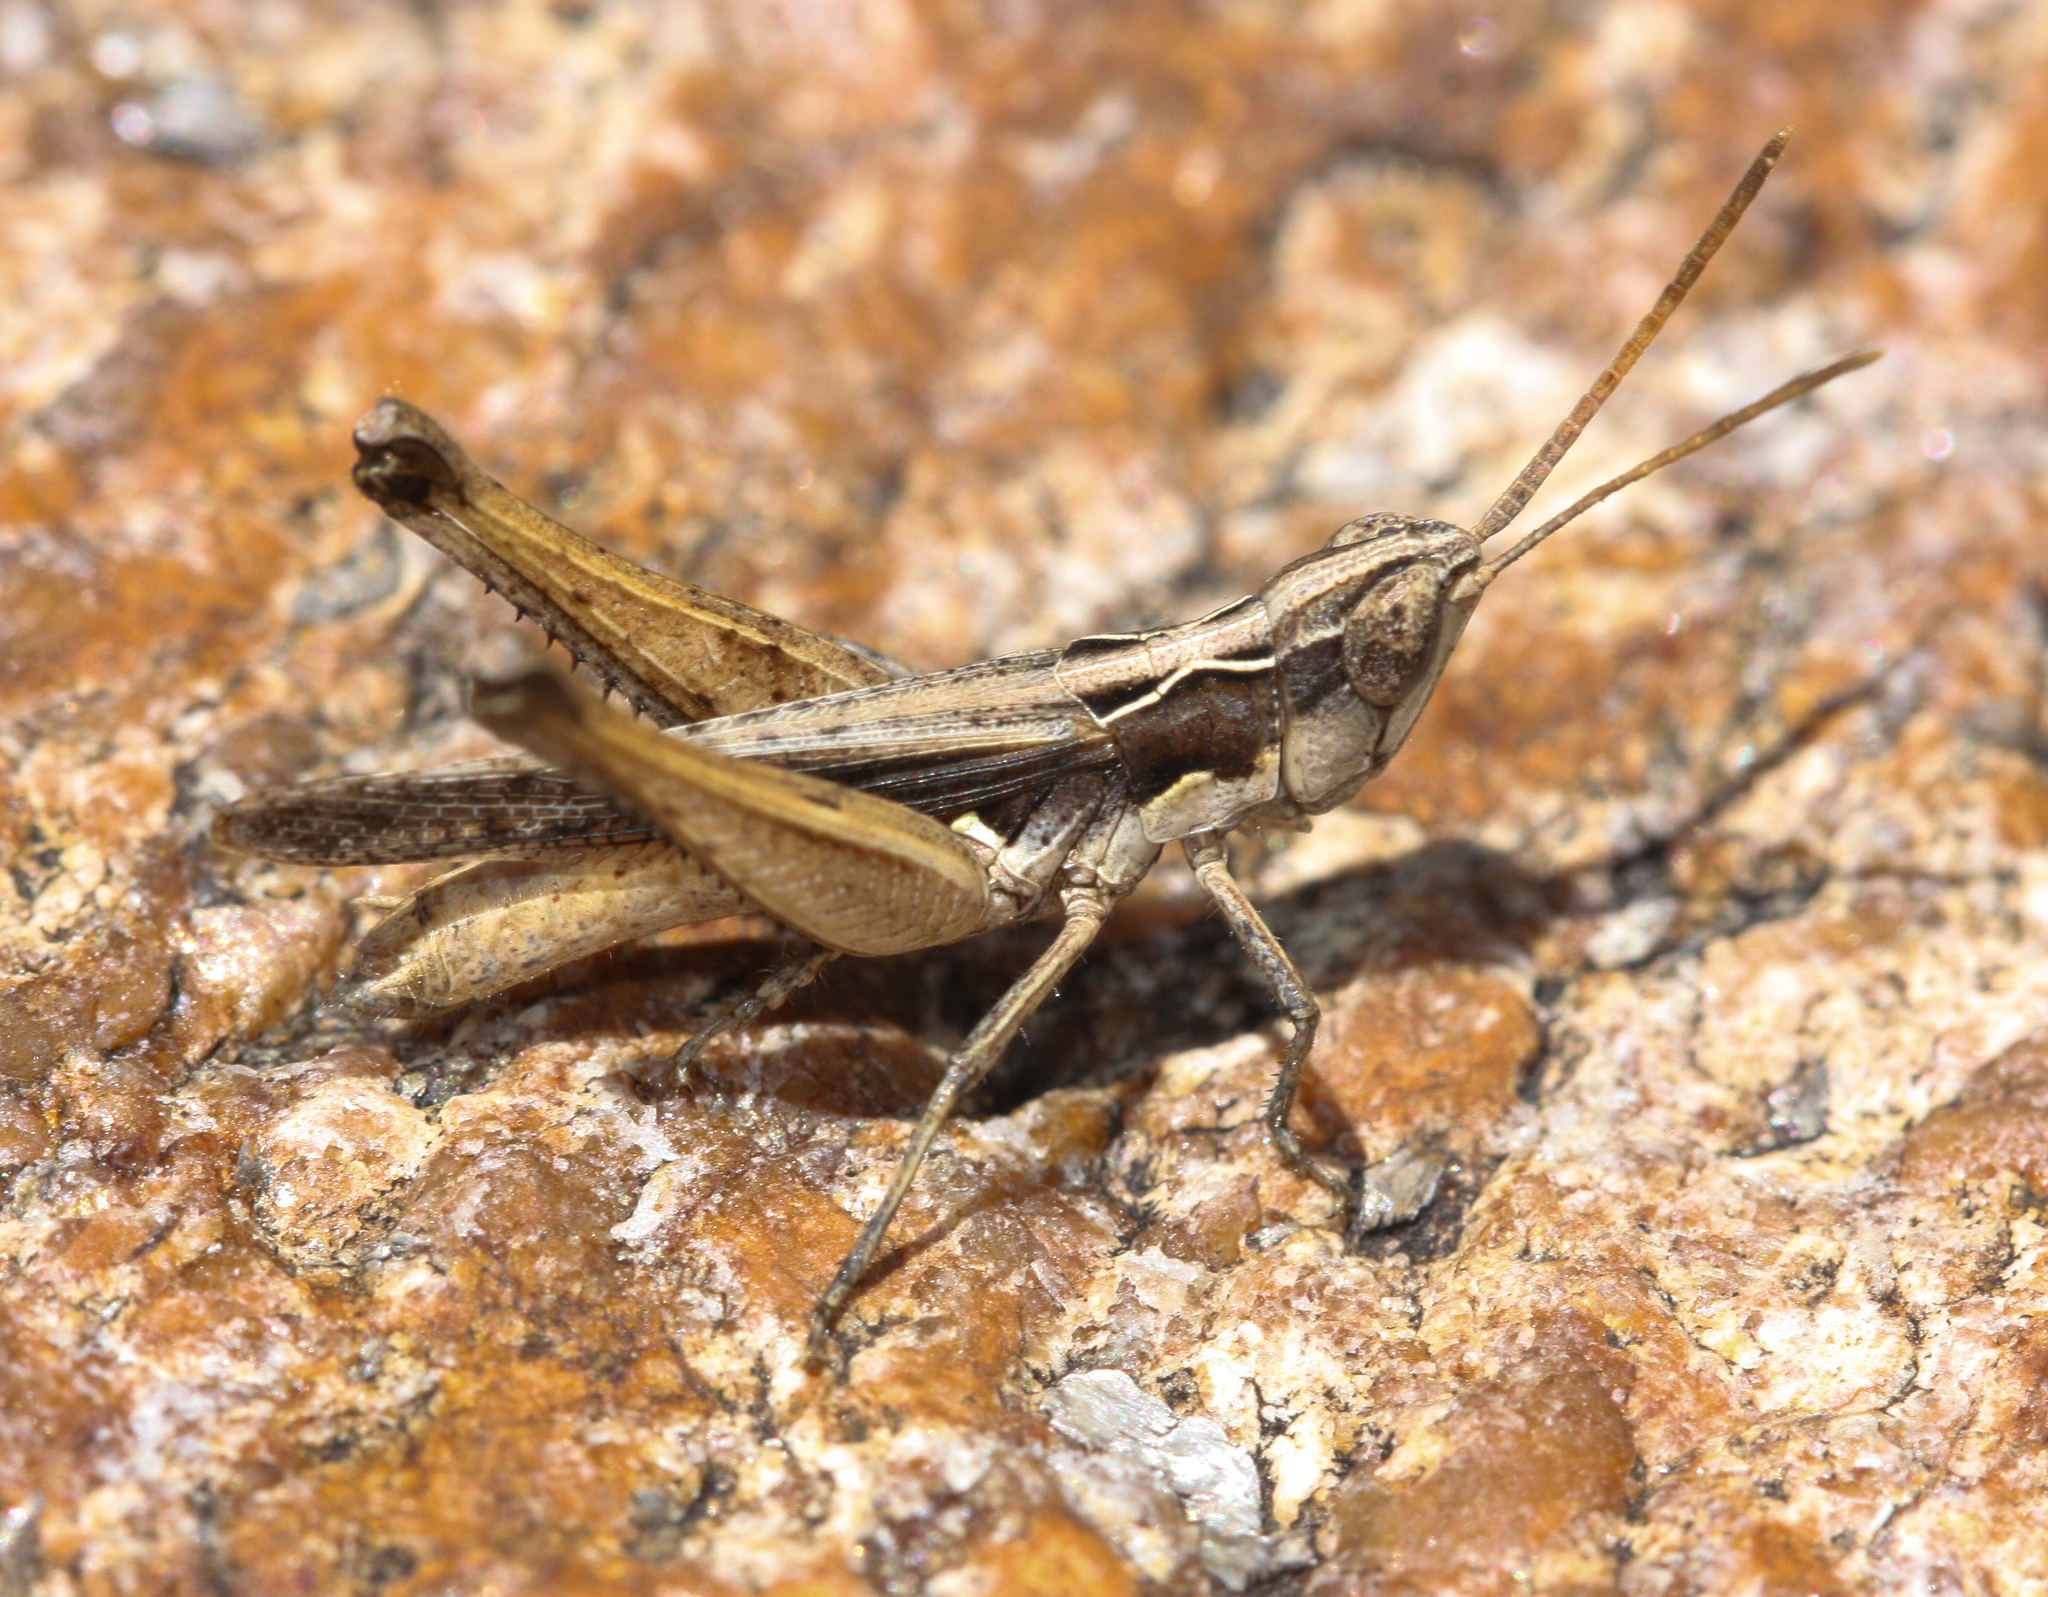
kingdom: Animalia
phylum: Arthropoda
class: Insecta
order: Orthoptera
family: Acrididae
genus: Horesidotes
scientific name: Horesidotes cinereus
